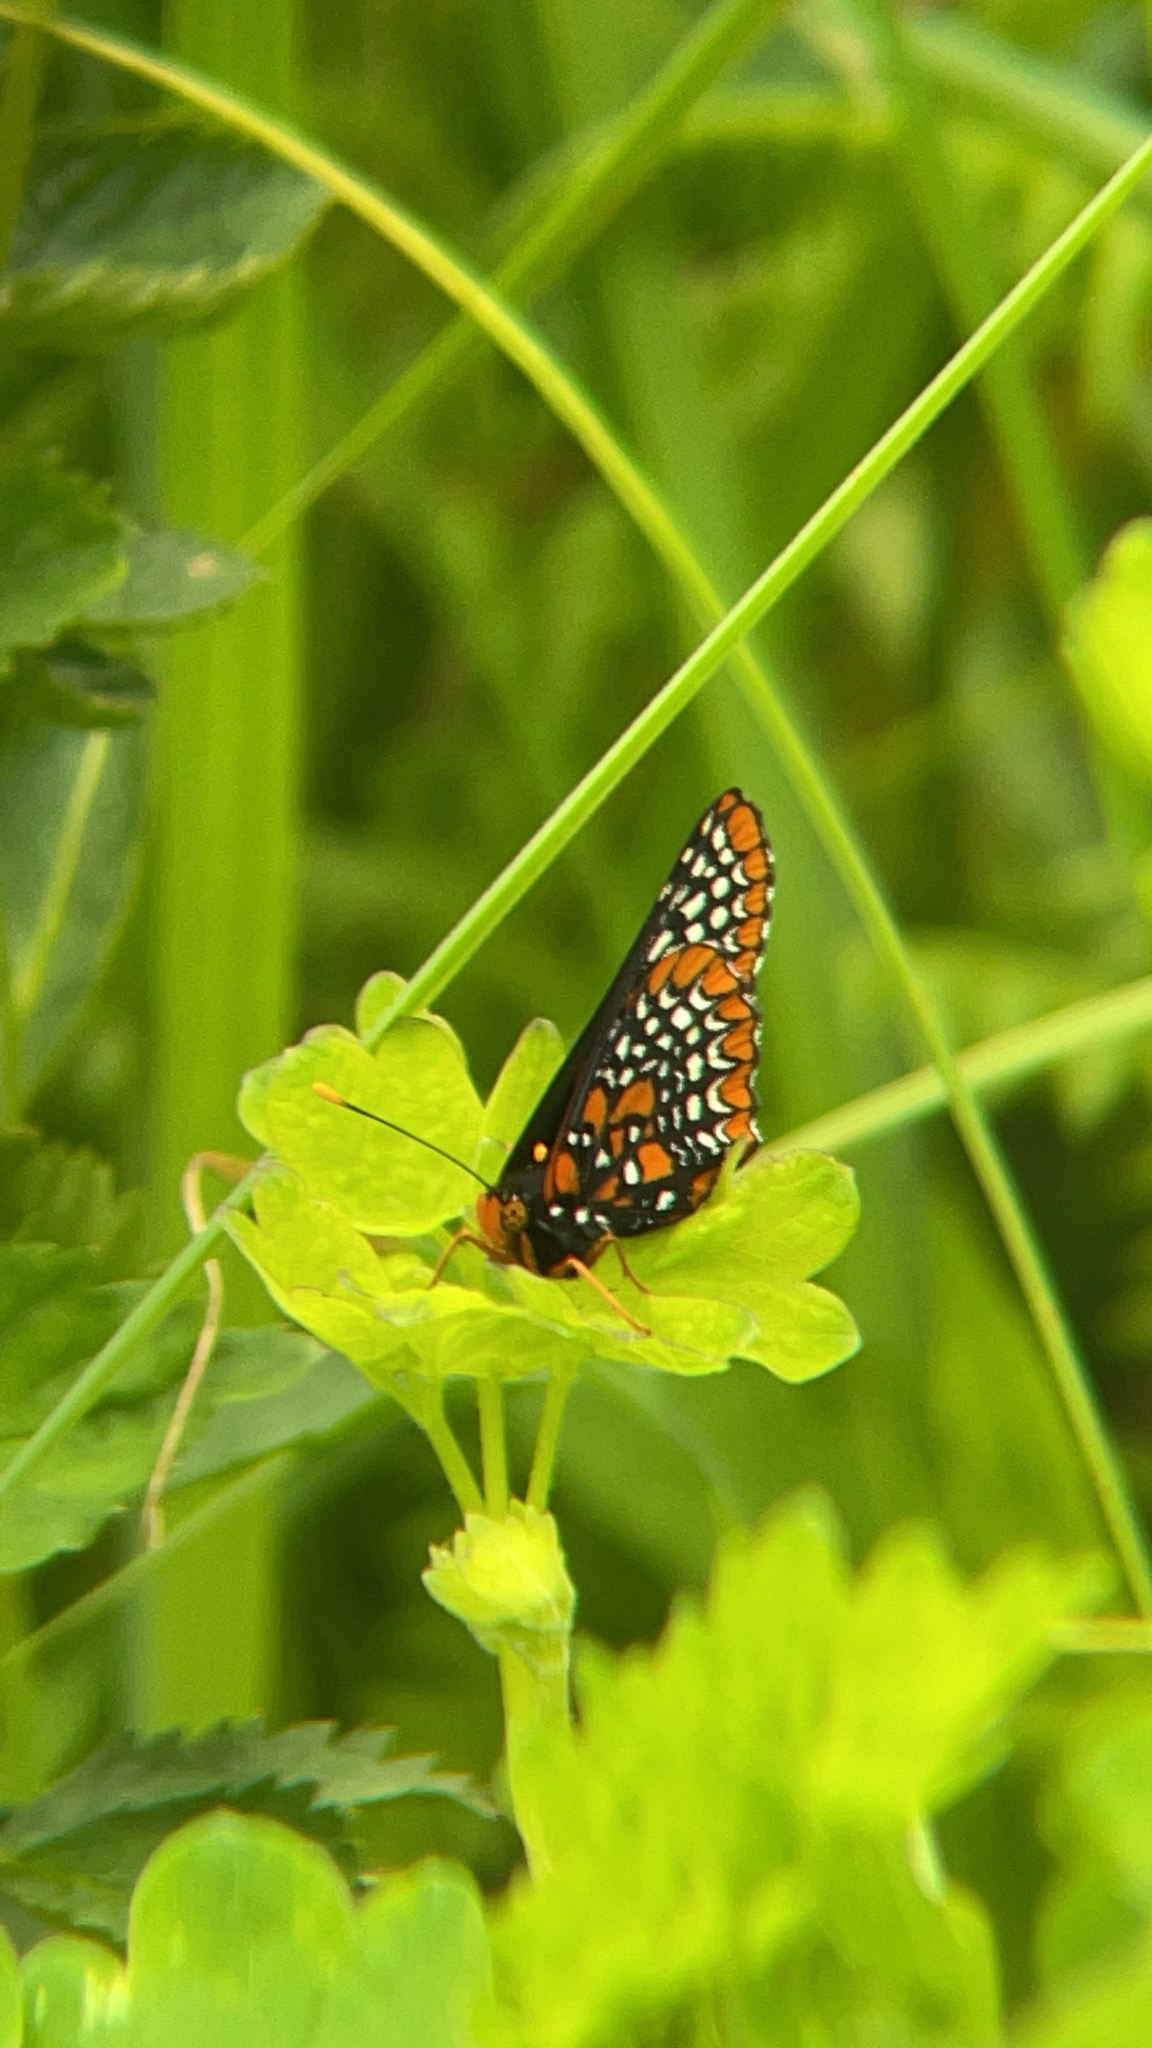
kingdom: Animalia
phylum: Arthropoda
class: Insecta
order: Lepidoptera
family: Nymphalidae
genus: Euphydryas
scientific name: Euphydryas phaeton
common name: Baltimore checkerspot
